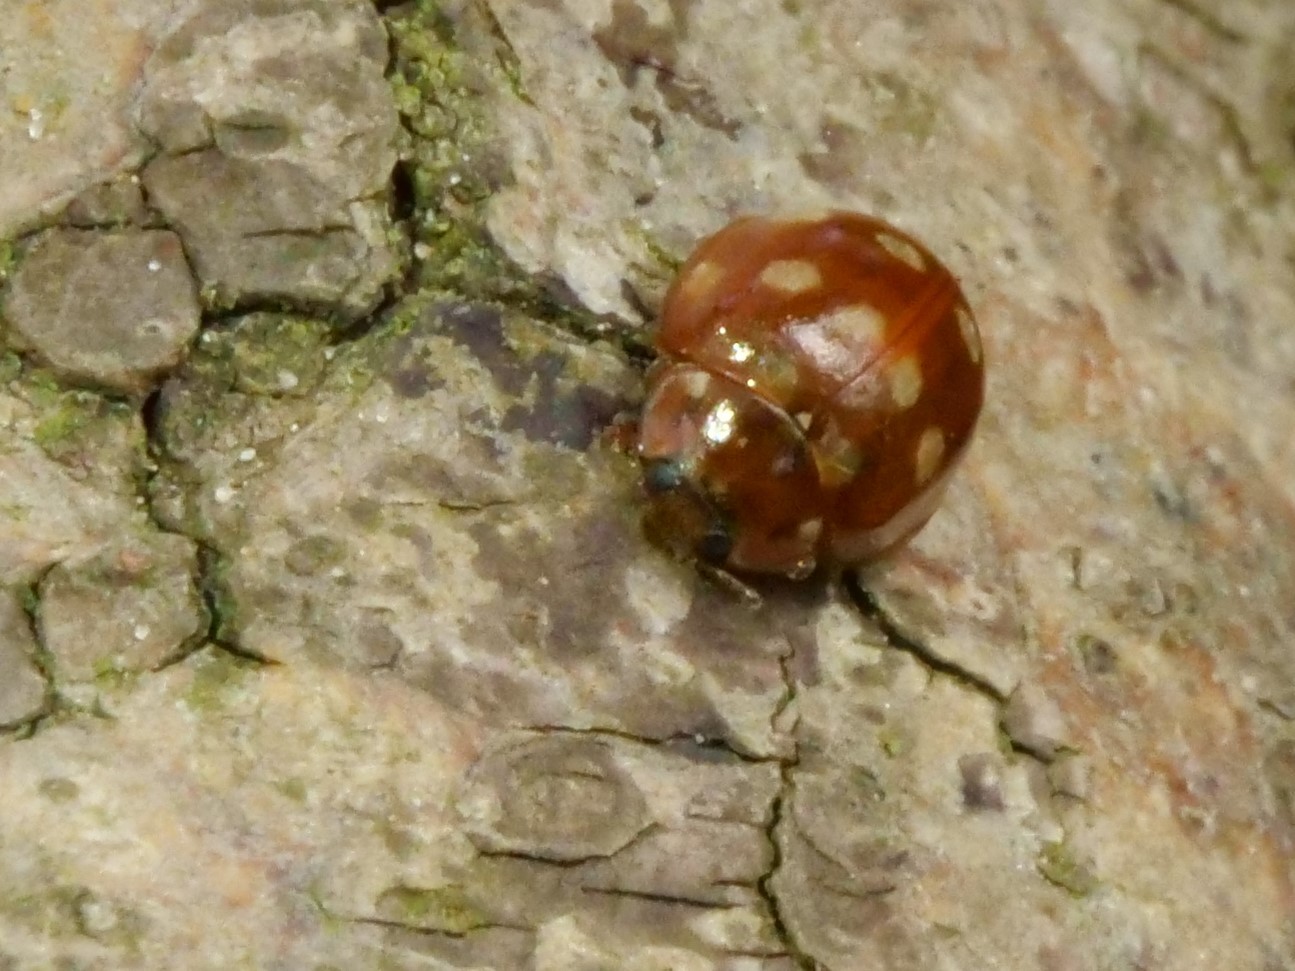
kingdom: Animalia
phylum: Arthropoda
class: Insecta
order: Coleoptera
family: Coccinellidae
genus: Calvia
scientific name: Calvia quatuordecimguttata
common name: Cream-spot ladybird
